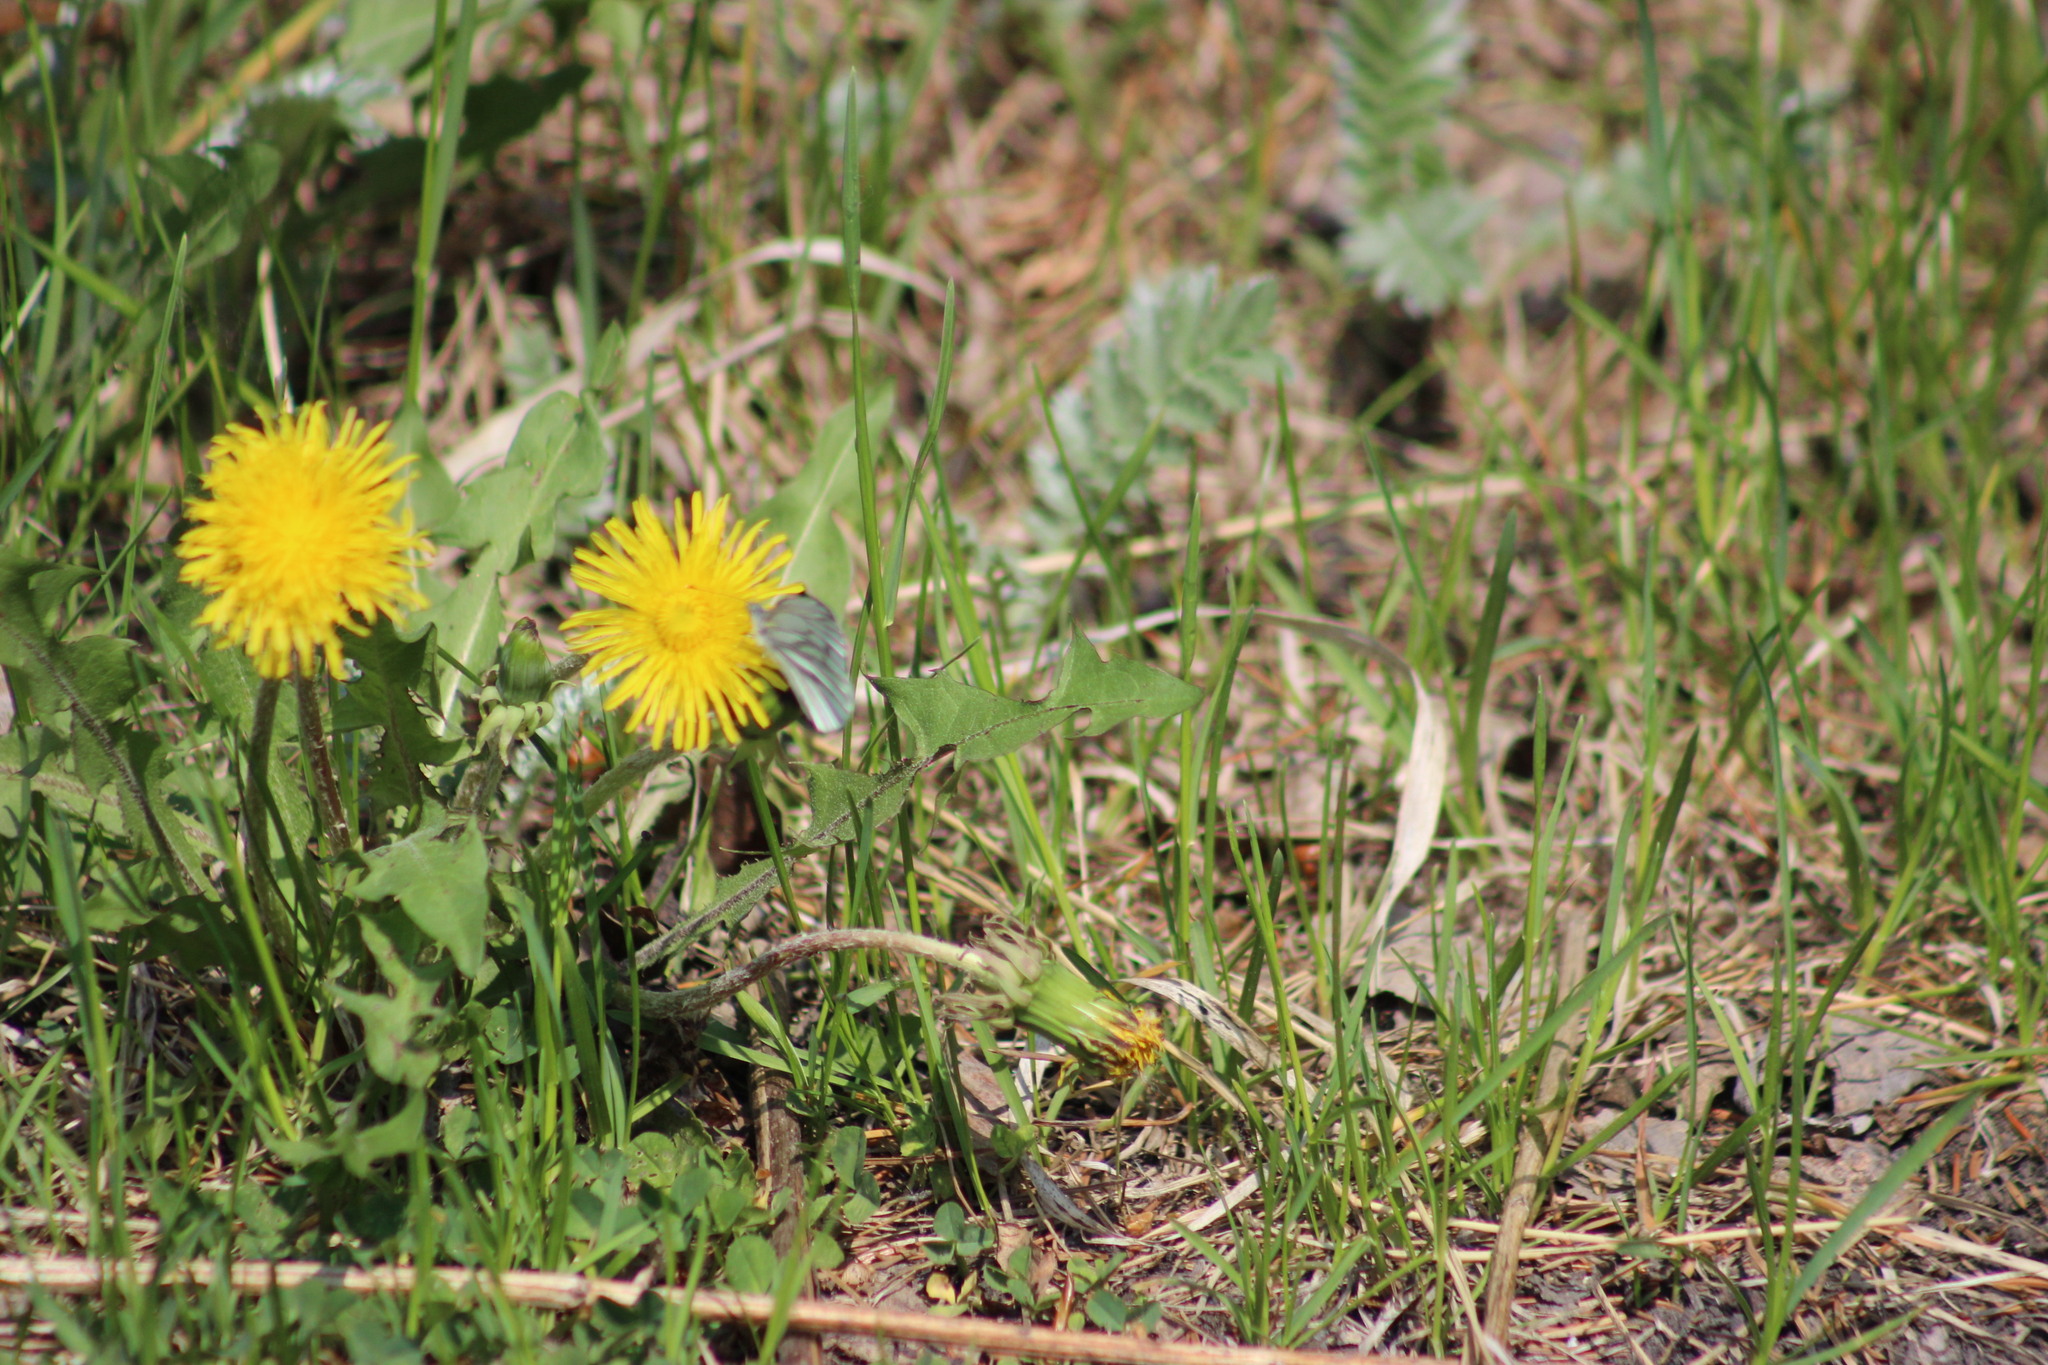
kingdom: Animalia
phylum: Arthropoda
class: Insecta
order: Lepidoptera
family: Pieridae
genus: Pieris
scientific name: Pieris napi
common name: Green-veined white
